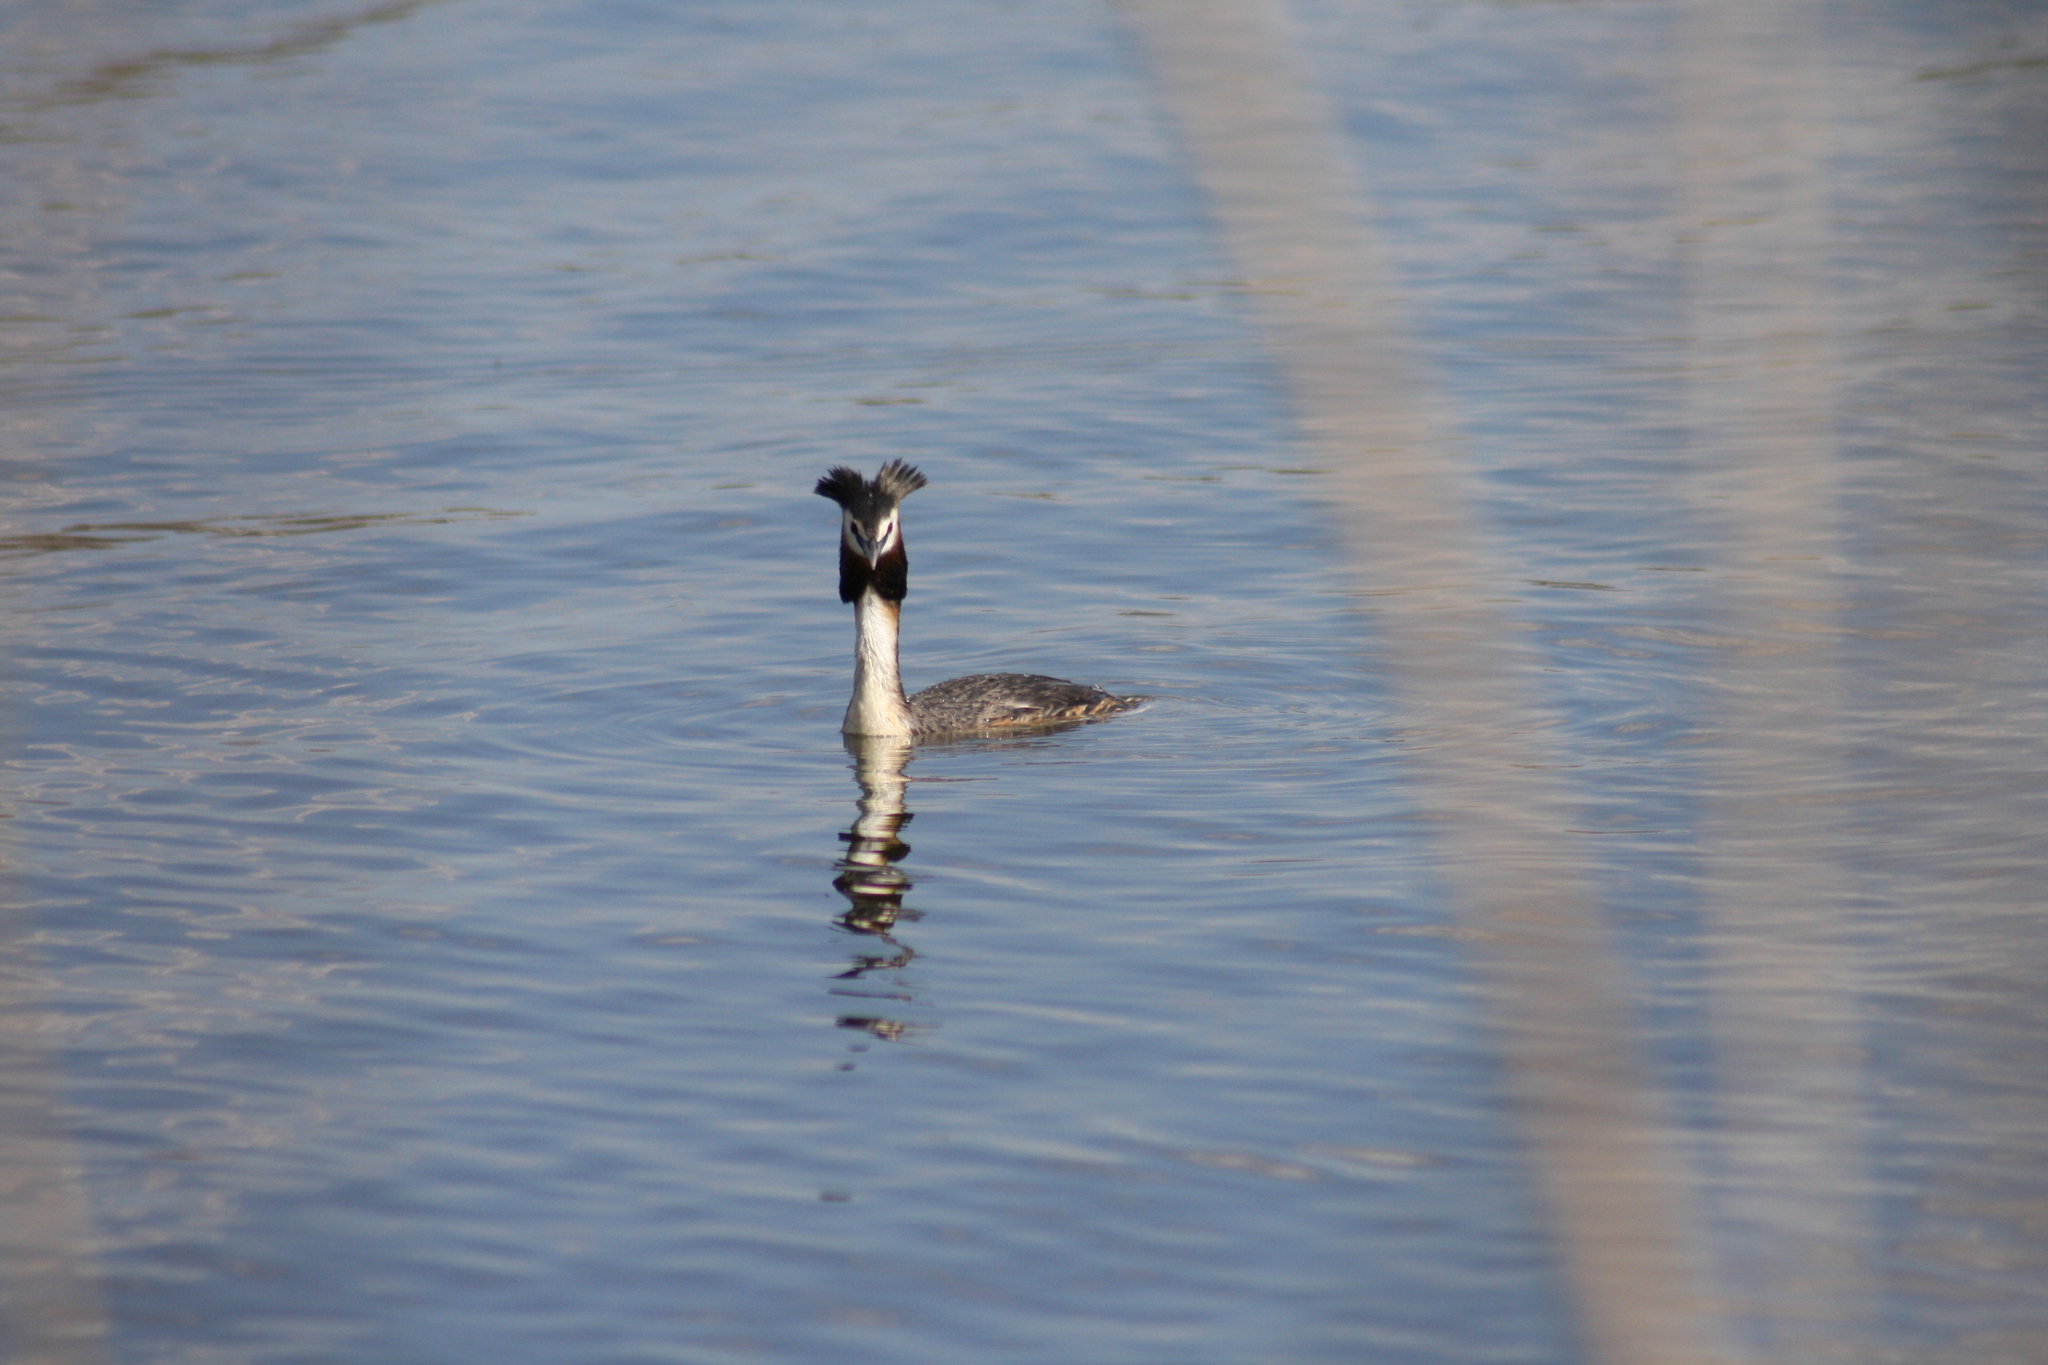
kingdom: Animalia
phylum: Chordata
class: Aves
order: Podicipediformes
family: Podicipedidae
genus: Podiceps
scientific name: Podiceps cristatus
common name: Great crested grebe
